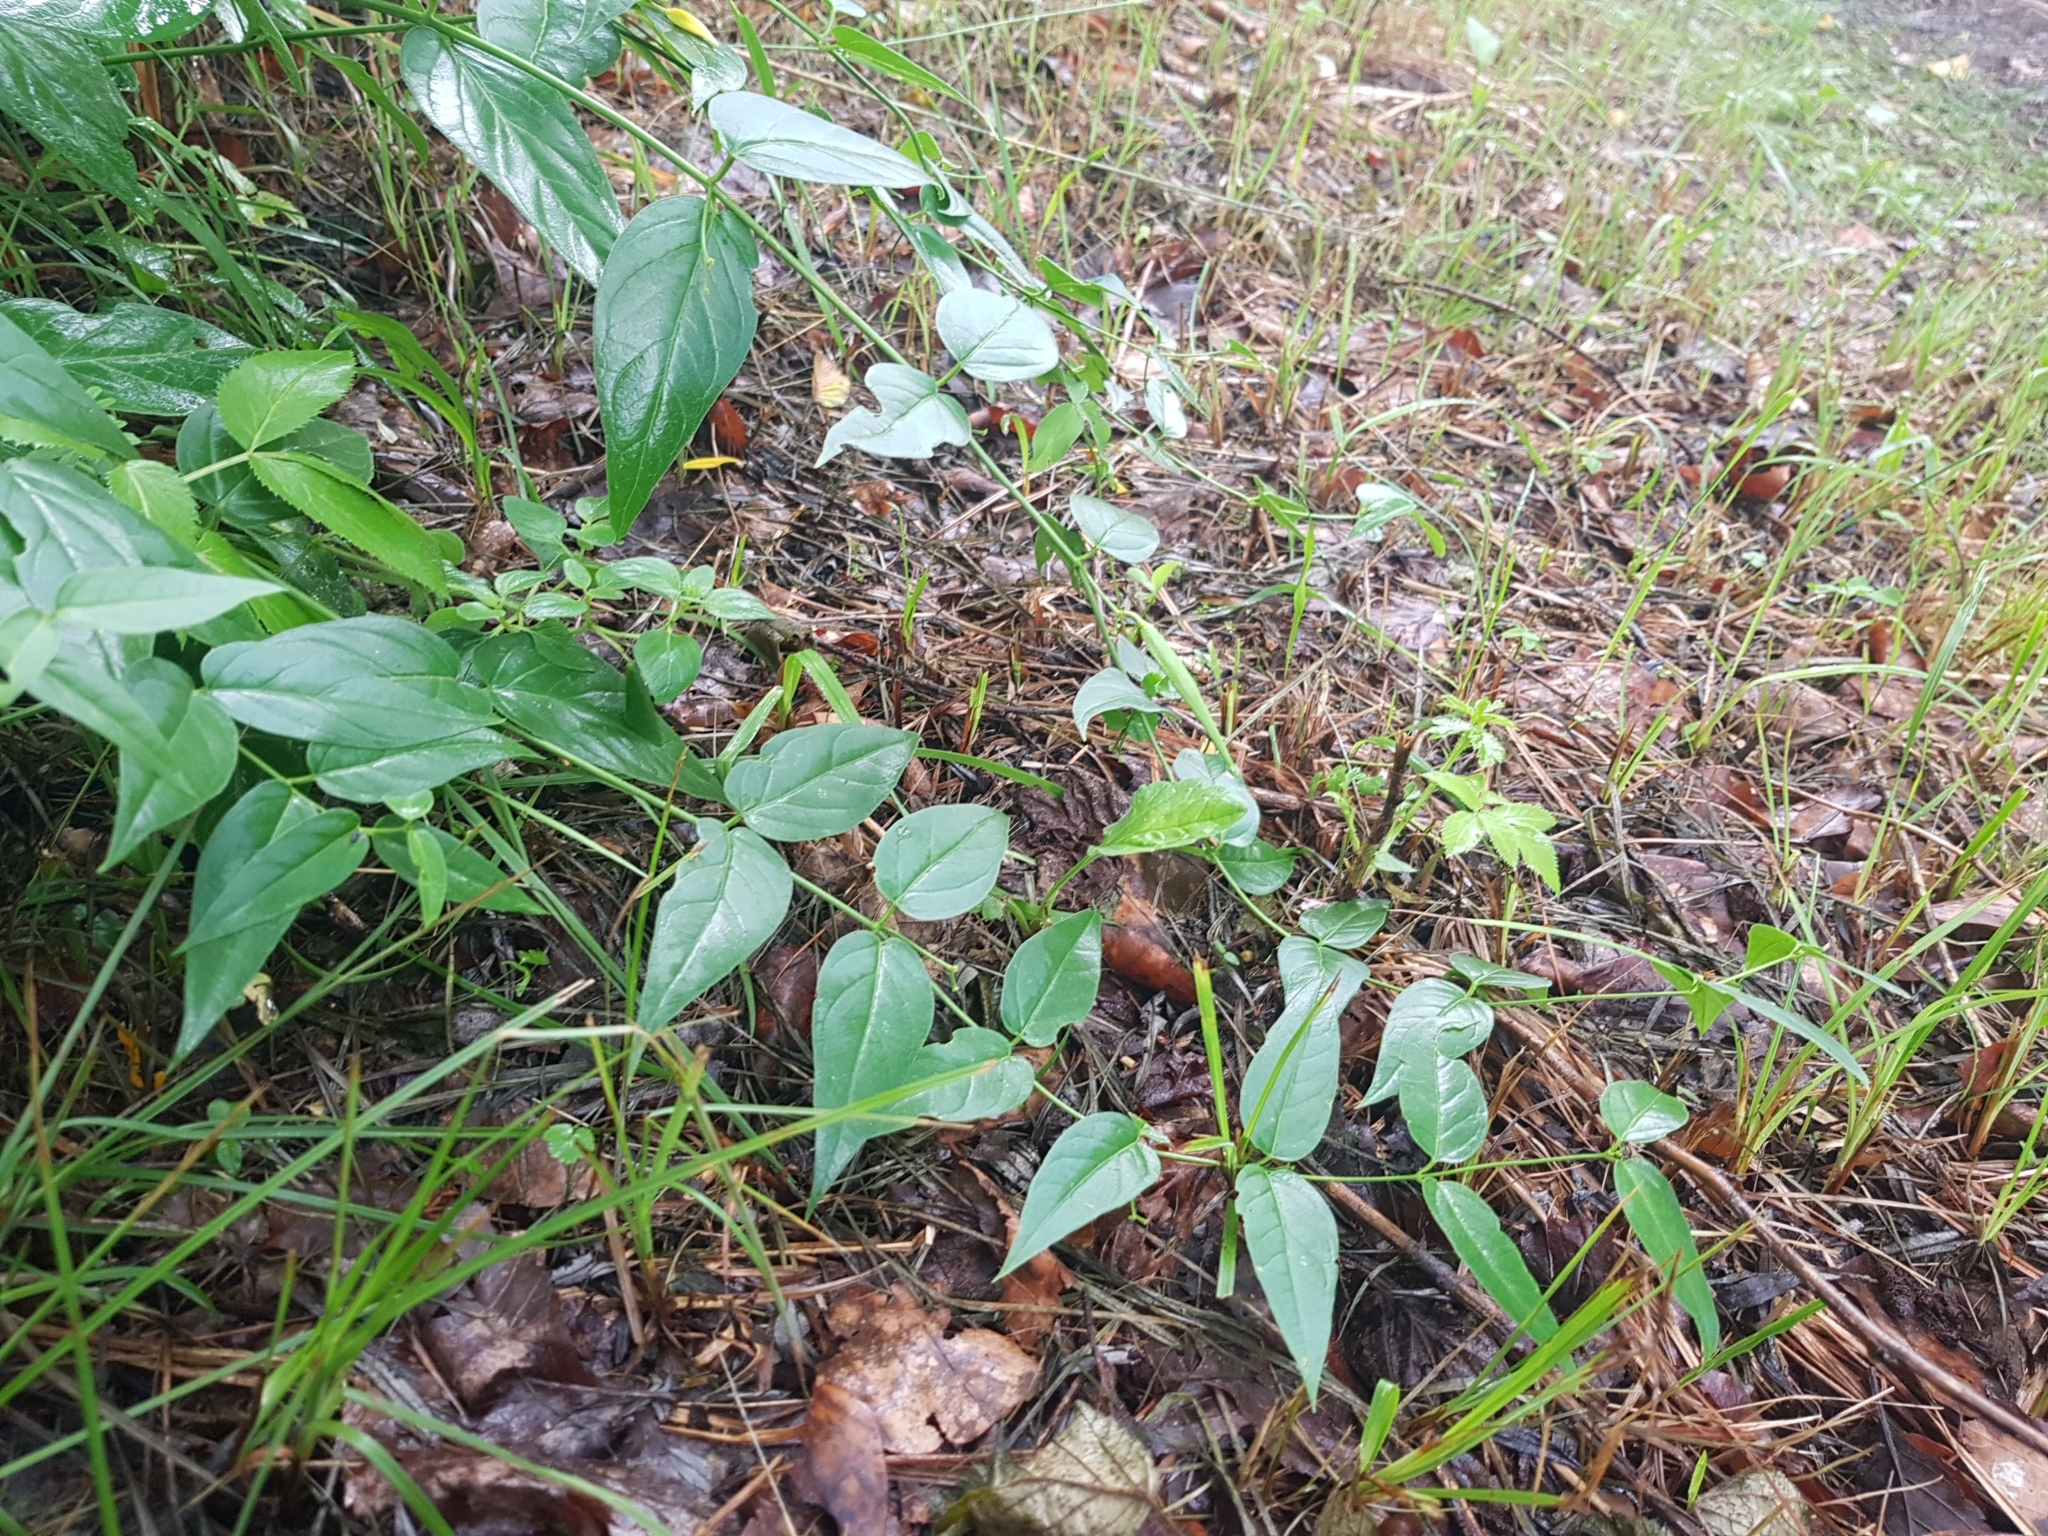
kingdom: Plantae
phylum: Tracheophyta
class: Magnoliopsida
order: Gentianales
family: Apocynaceae
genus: Vincetoxicum
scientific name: Vincetoxicum hirundinaria
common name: White swallowwort
